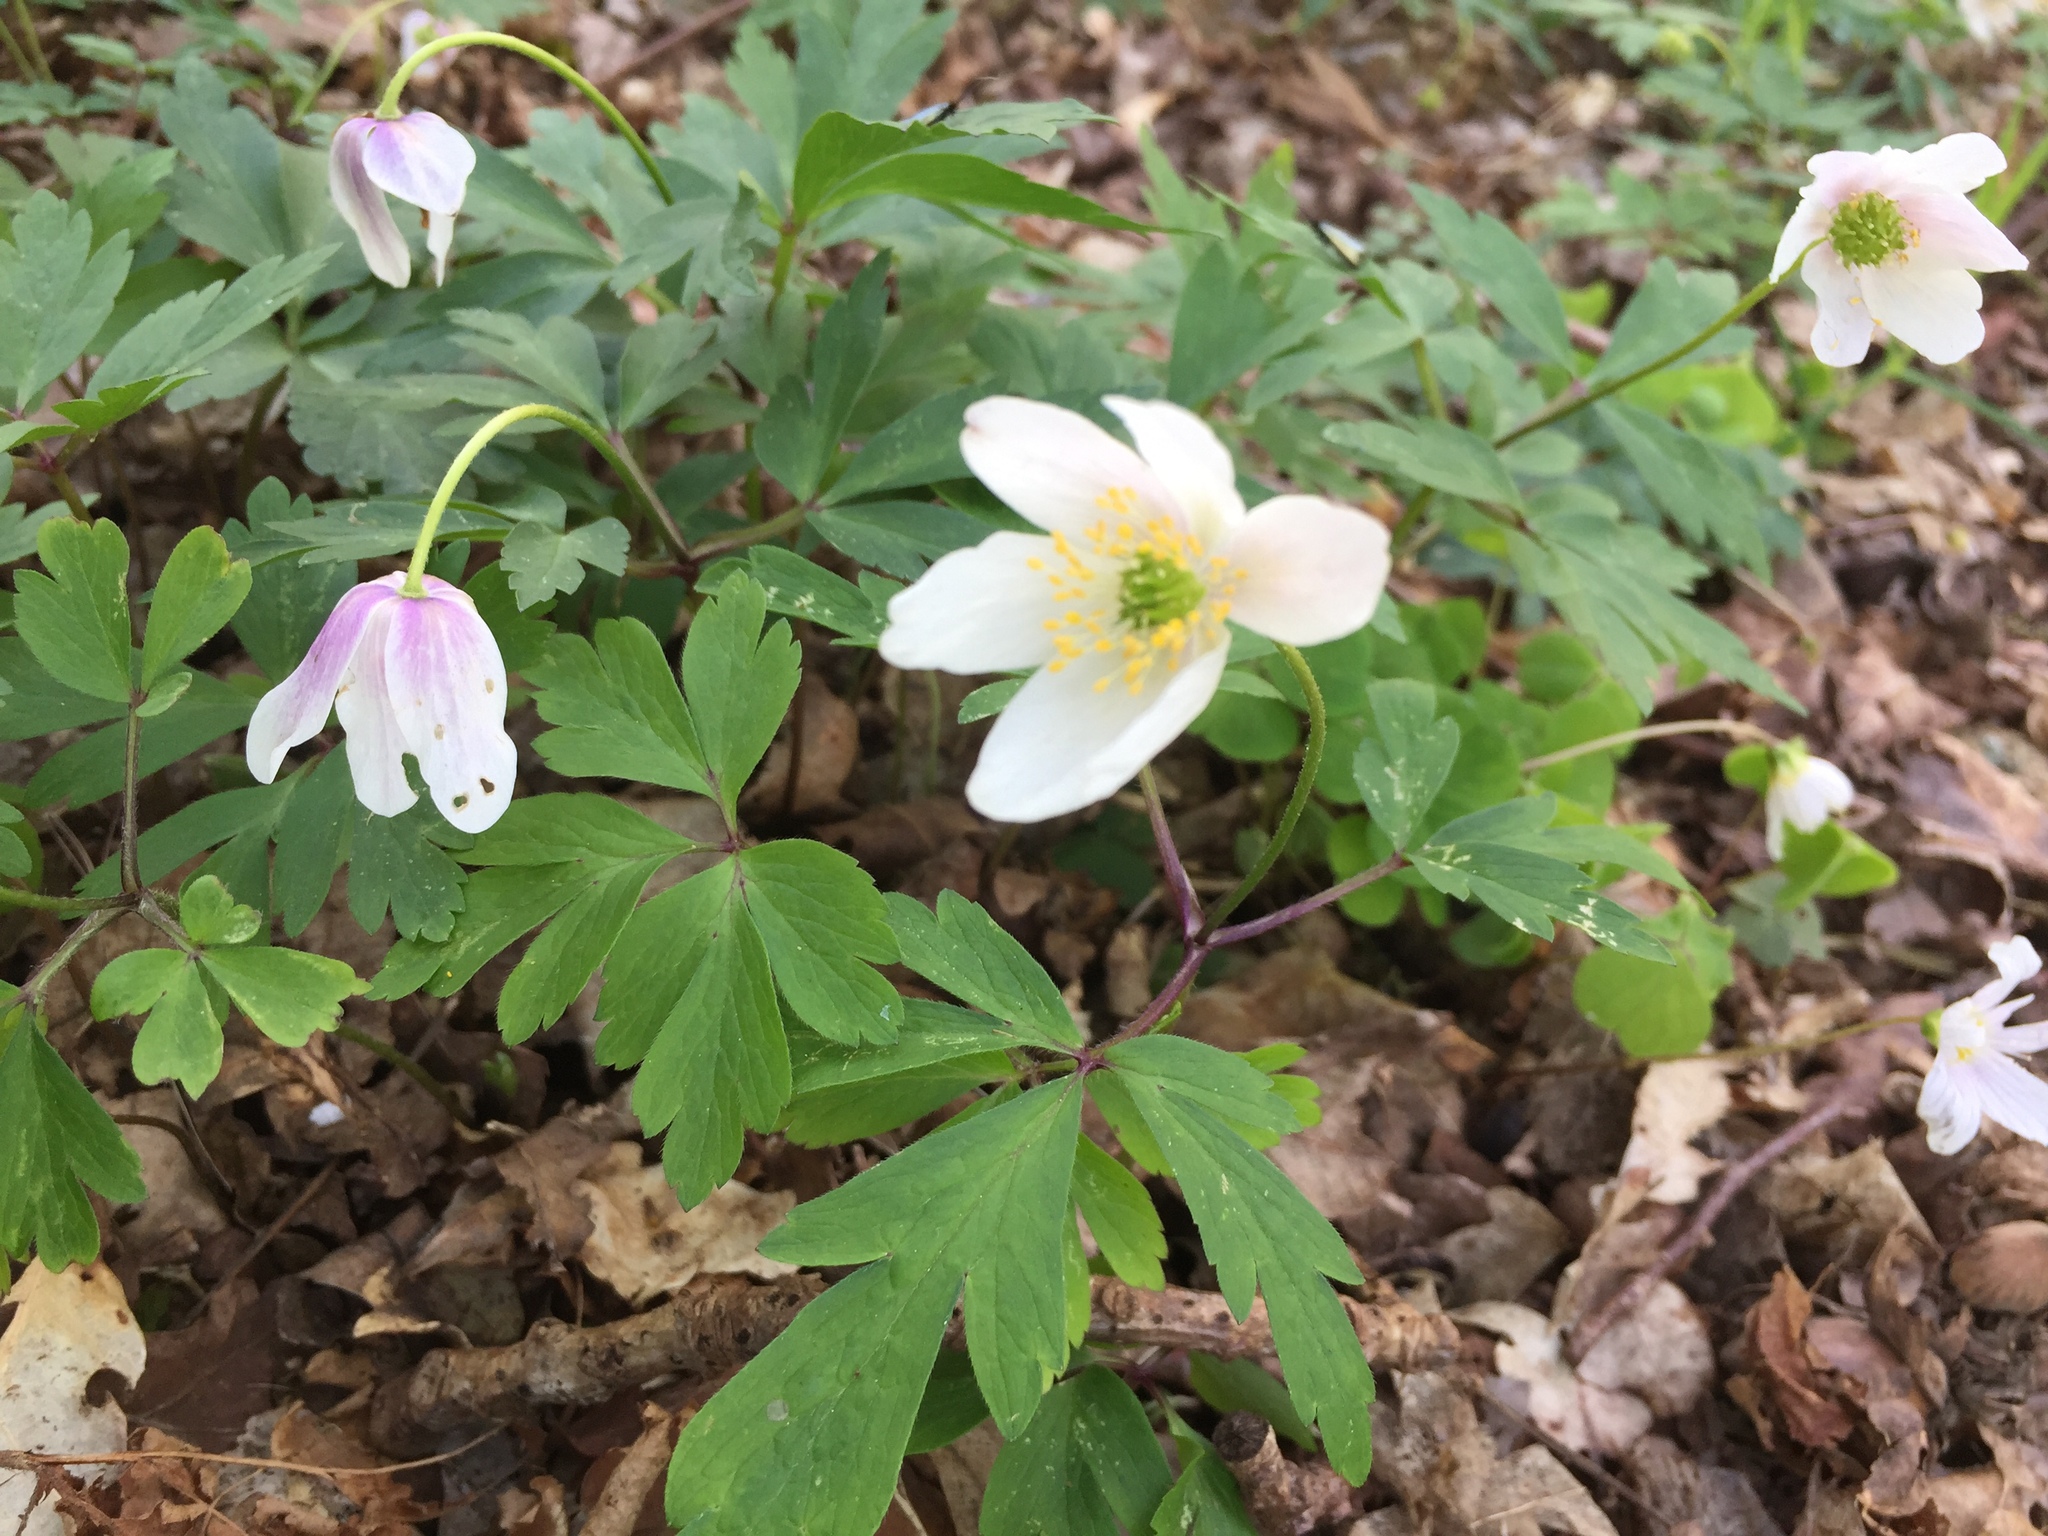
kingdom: Plantae
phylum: Tracheophyta
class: Magnoliopsida
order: Ranunculales
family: Ranunculaceae
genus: Anemone
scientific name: Anemone nemorosa
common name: Wood anemone
